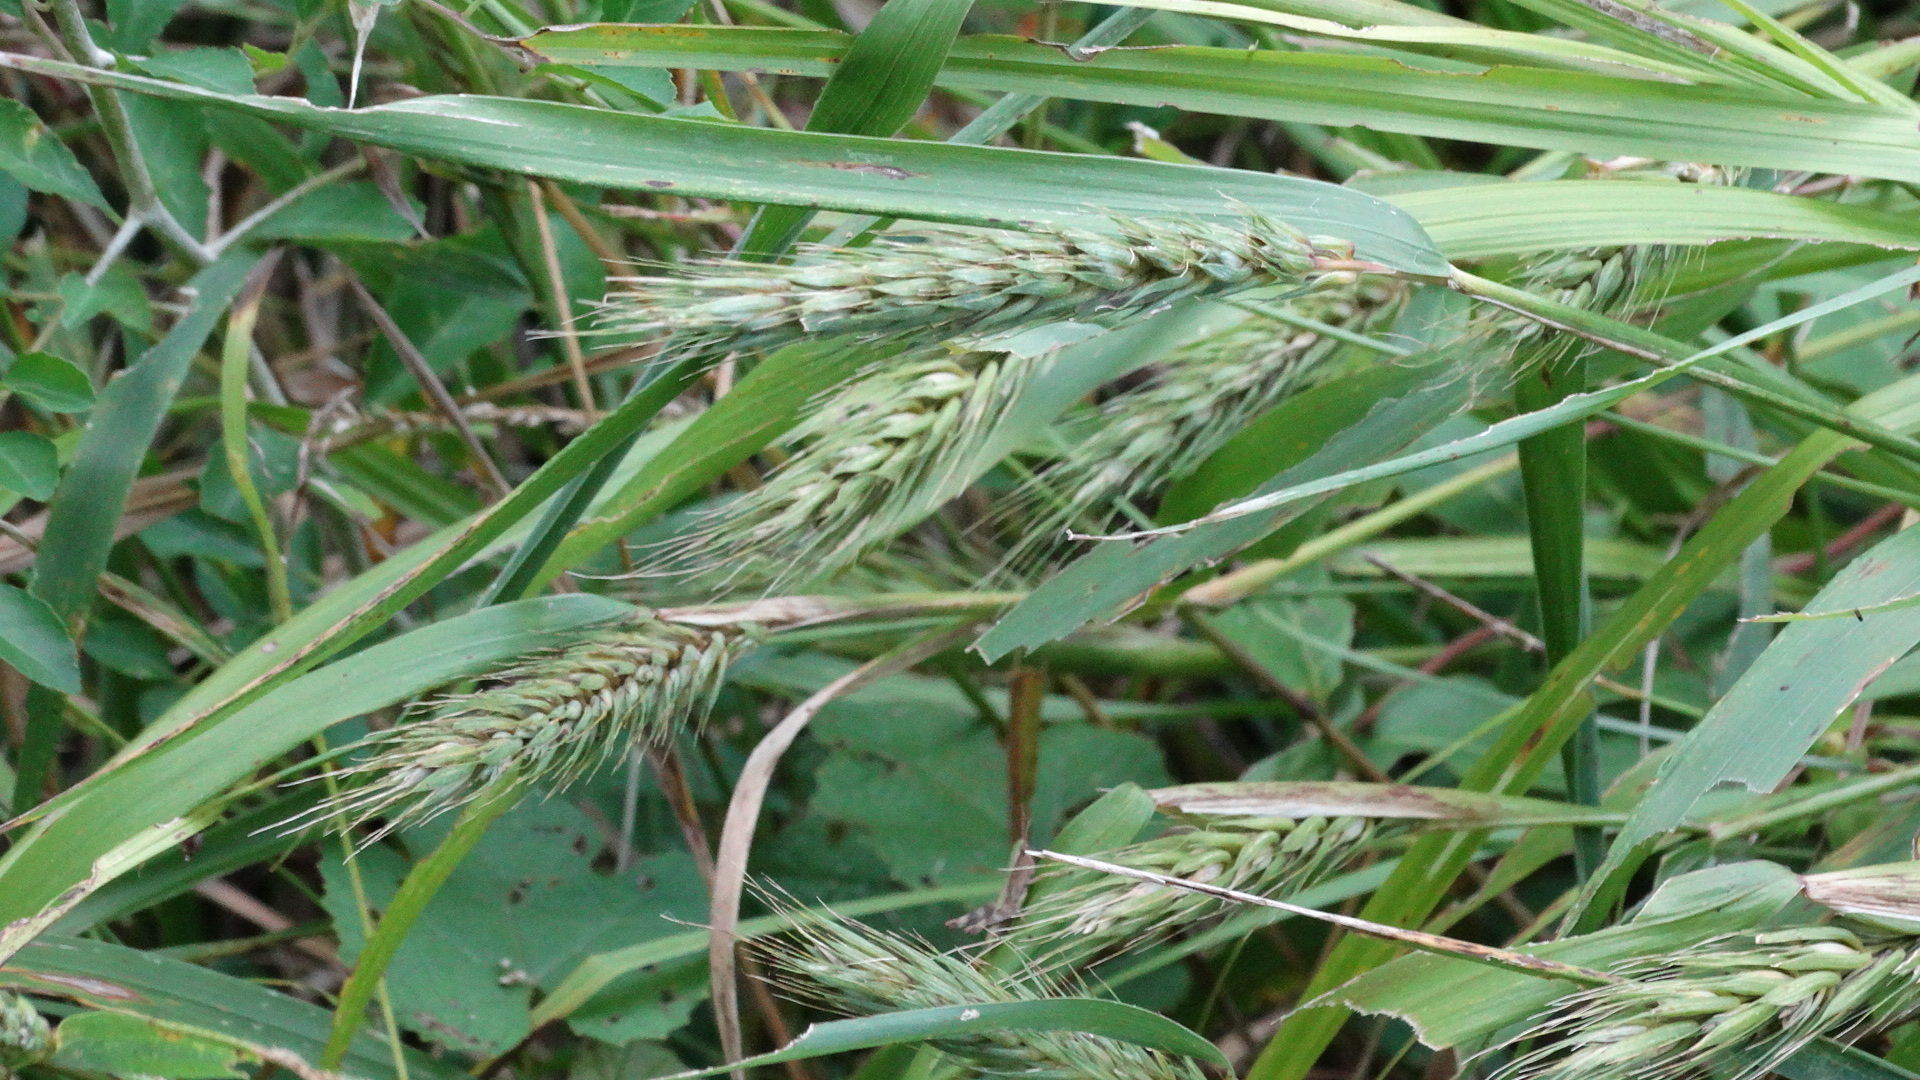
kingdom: Plantae
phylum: Tracheophyta
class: Liliopsida
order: Poales
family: Poaceae
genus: Elymus
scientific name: Elymus virginicus
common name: Common eastern wildrye
